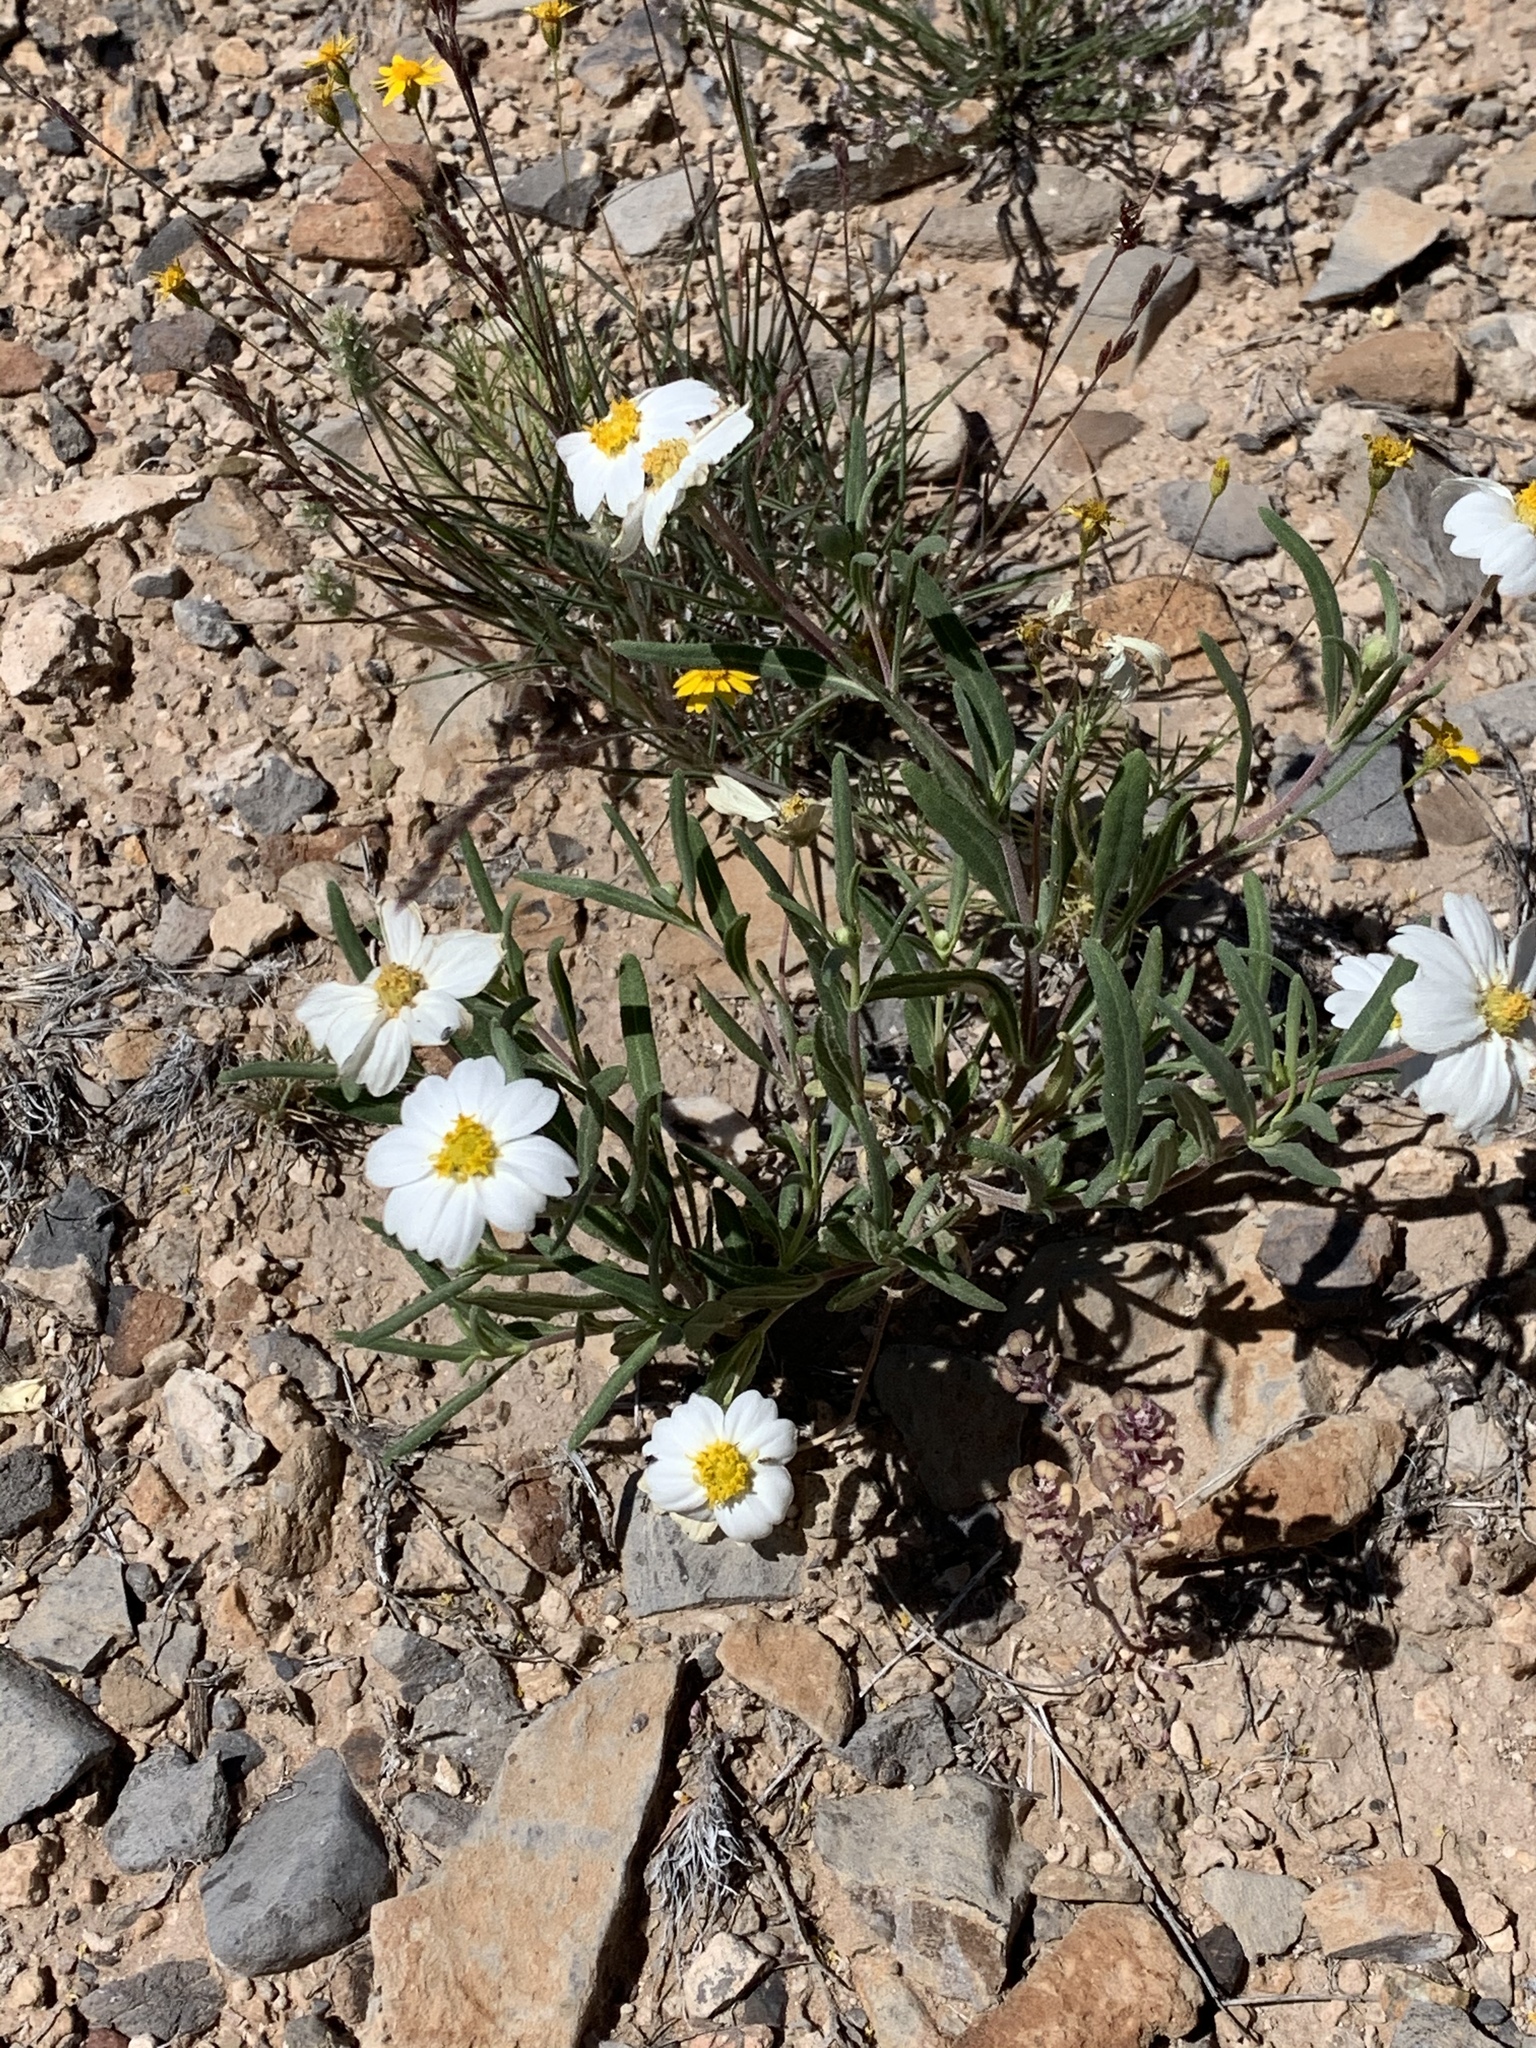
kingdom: Plantae
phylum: Tracheophyta
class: Magnoliopsida
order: Asterales
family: Asteraceae
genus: Melampodium
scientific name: Melampodium leucanthum
